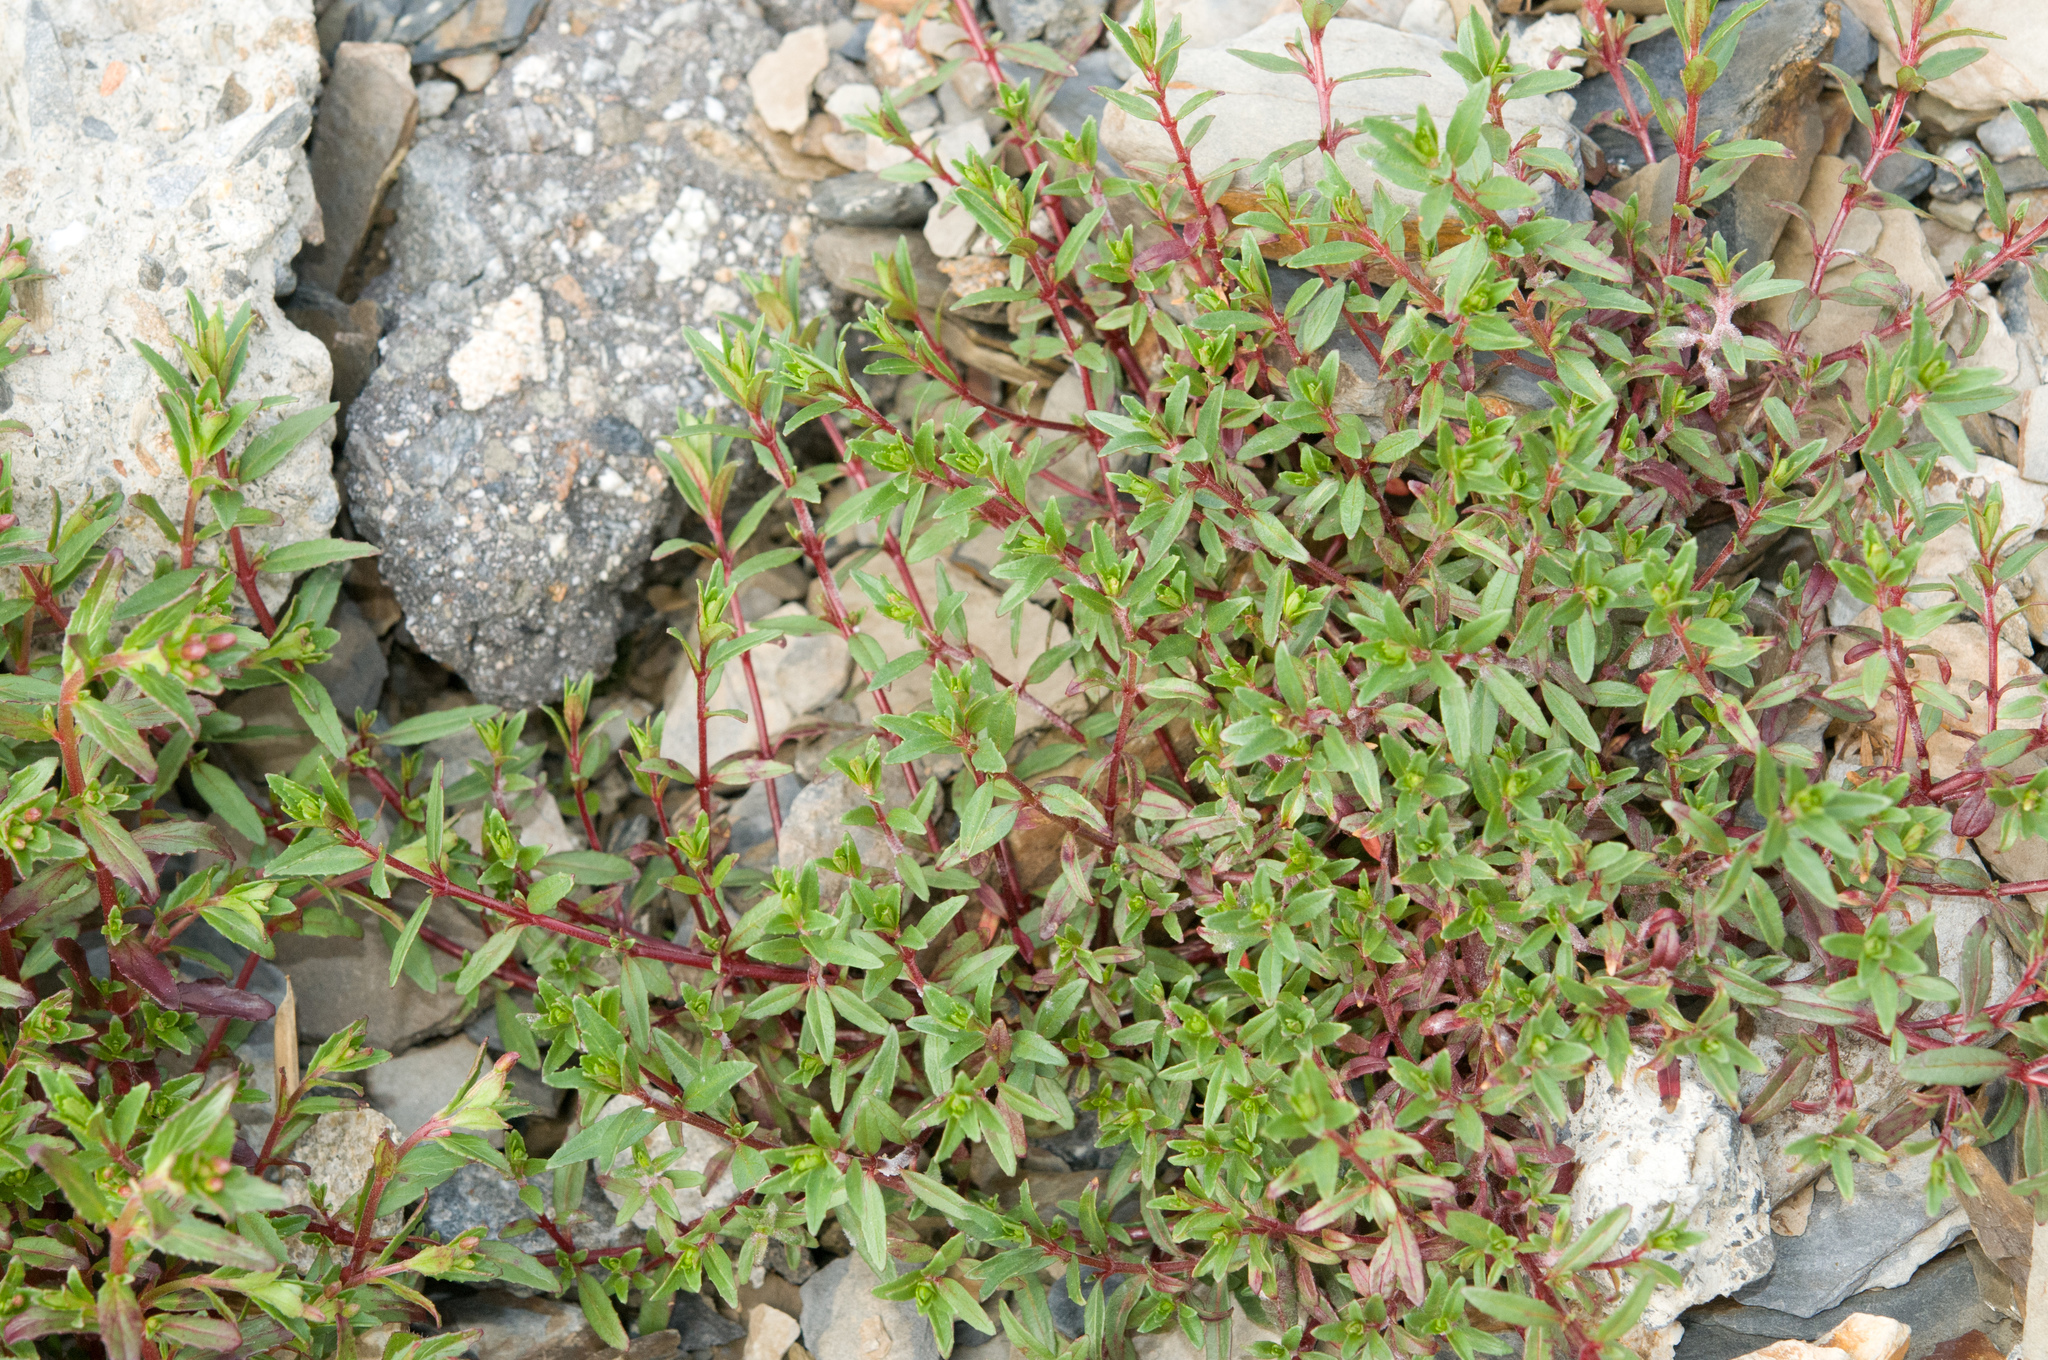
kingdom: Plantae
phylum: Tracheophyta
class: Magnoliopsida
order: Myrtales
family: Onagraceae
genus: Epilobium
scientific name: Epilobium hohuanense
